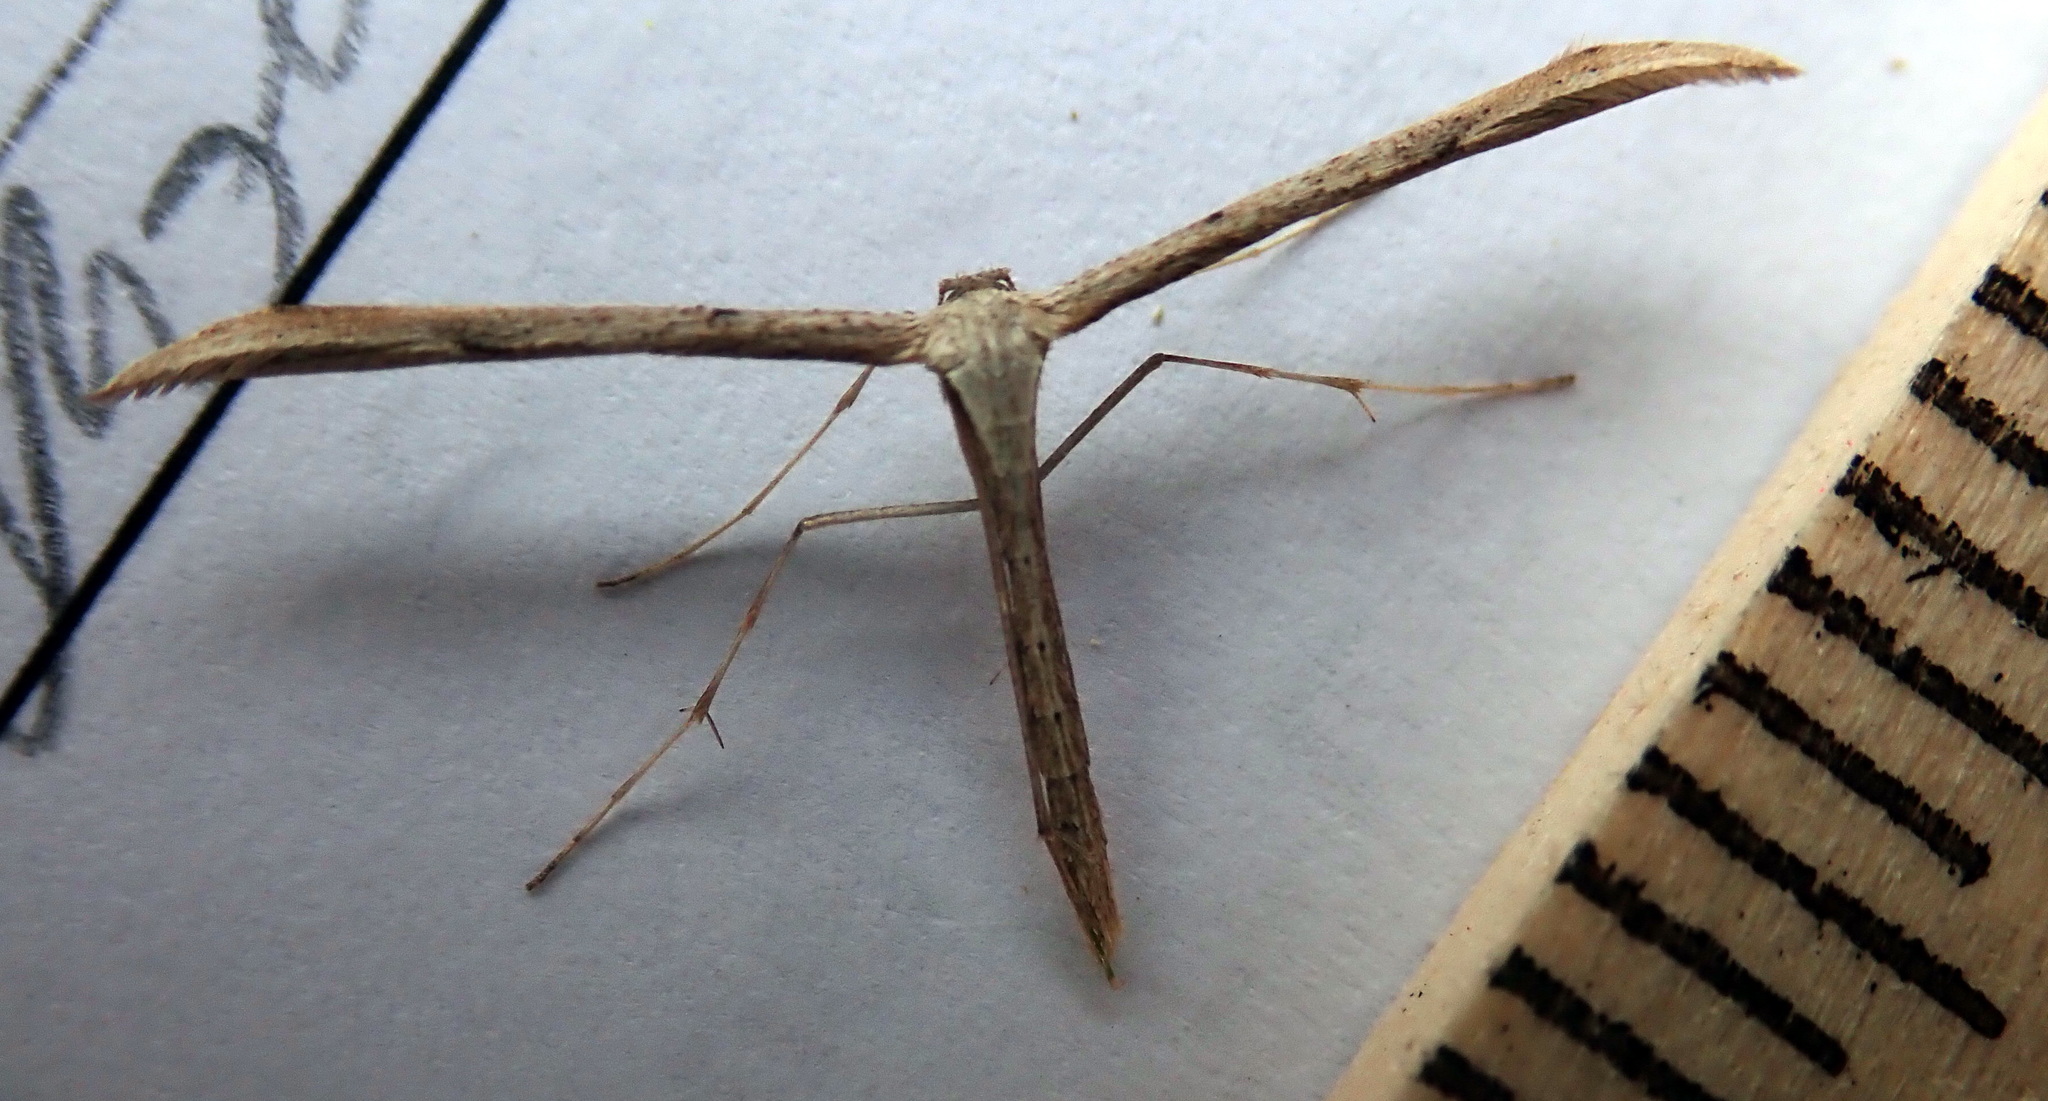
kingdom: Animalia
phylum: Arthropoda
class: Insecta
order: Lepidoptera
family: Pterophoridae
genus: Emmelina
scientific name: Emmelina monodactyla
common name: Common plume
